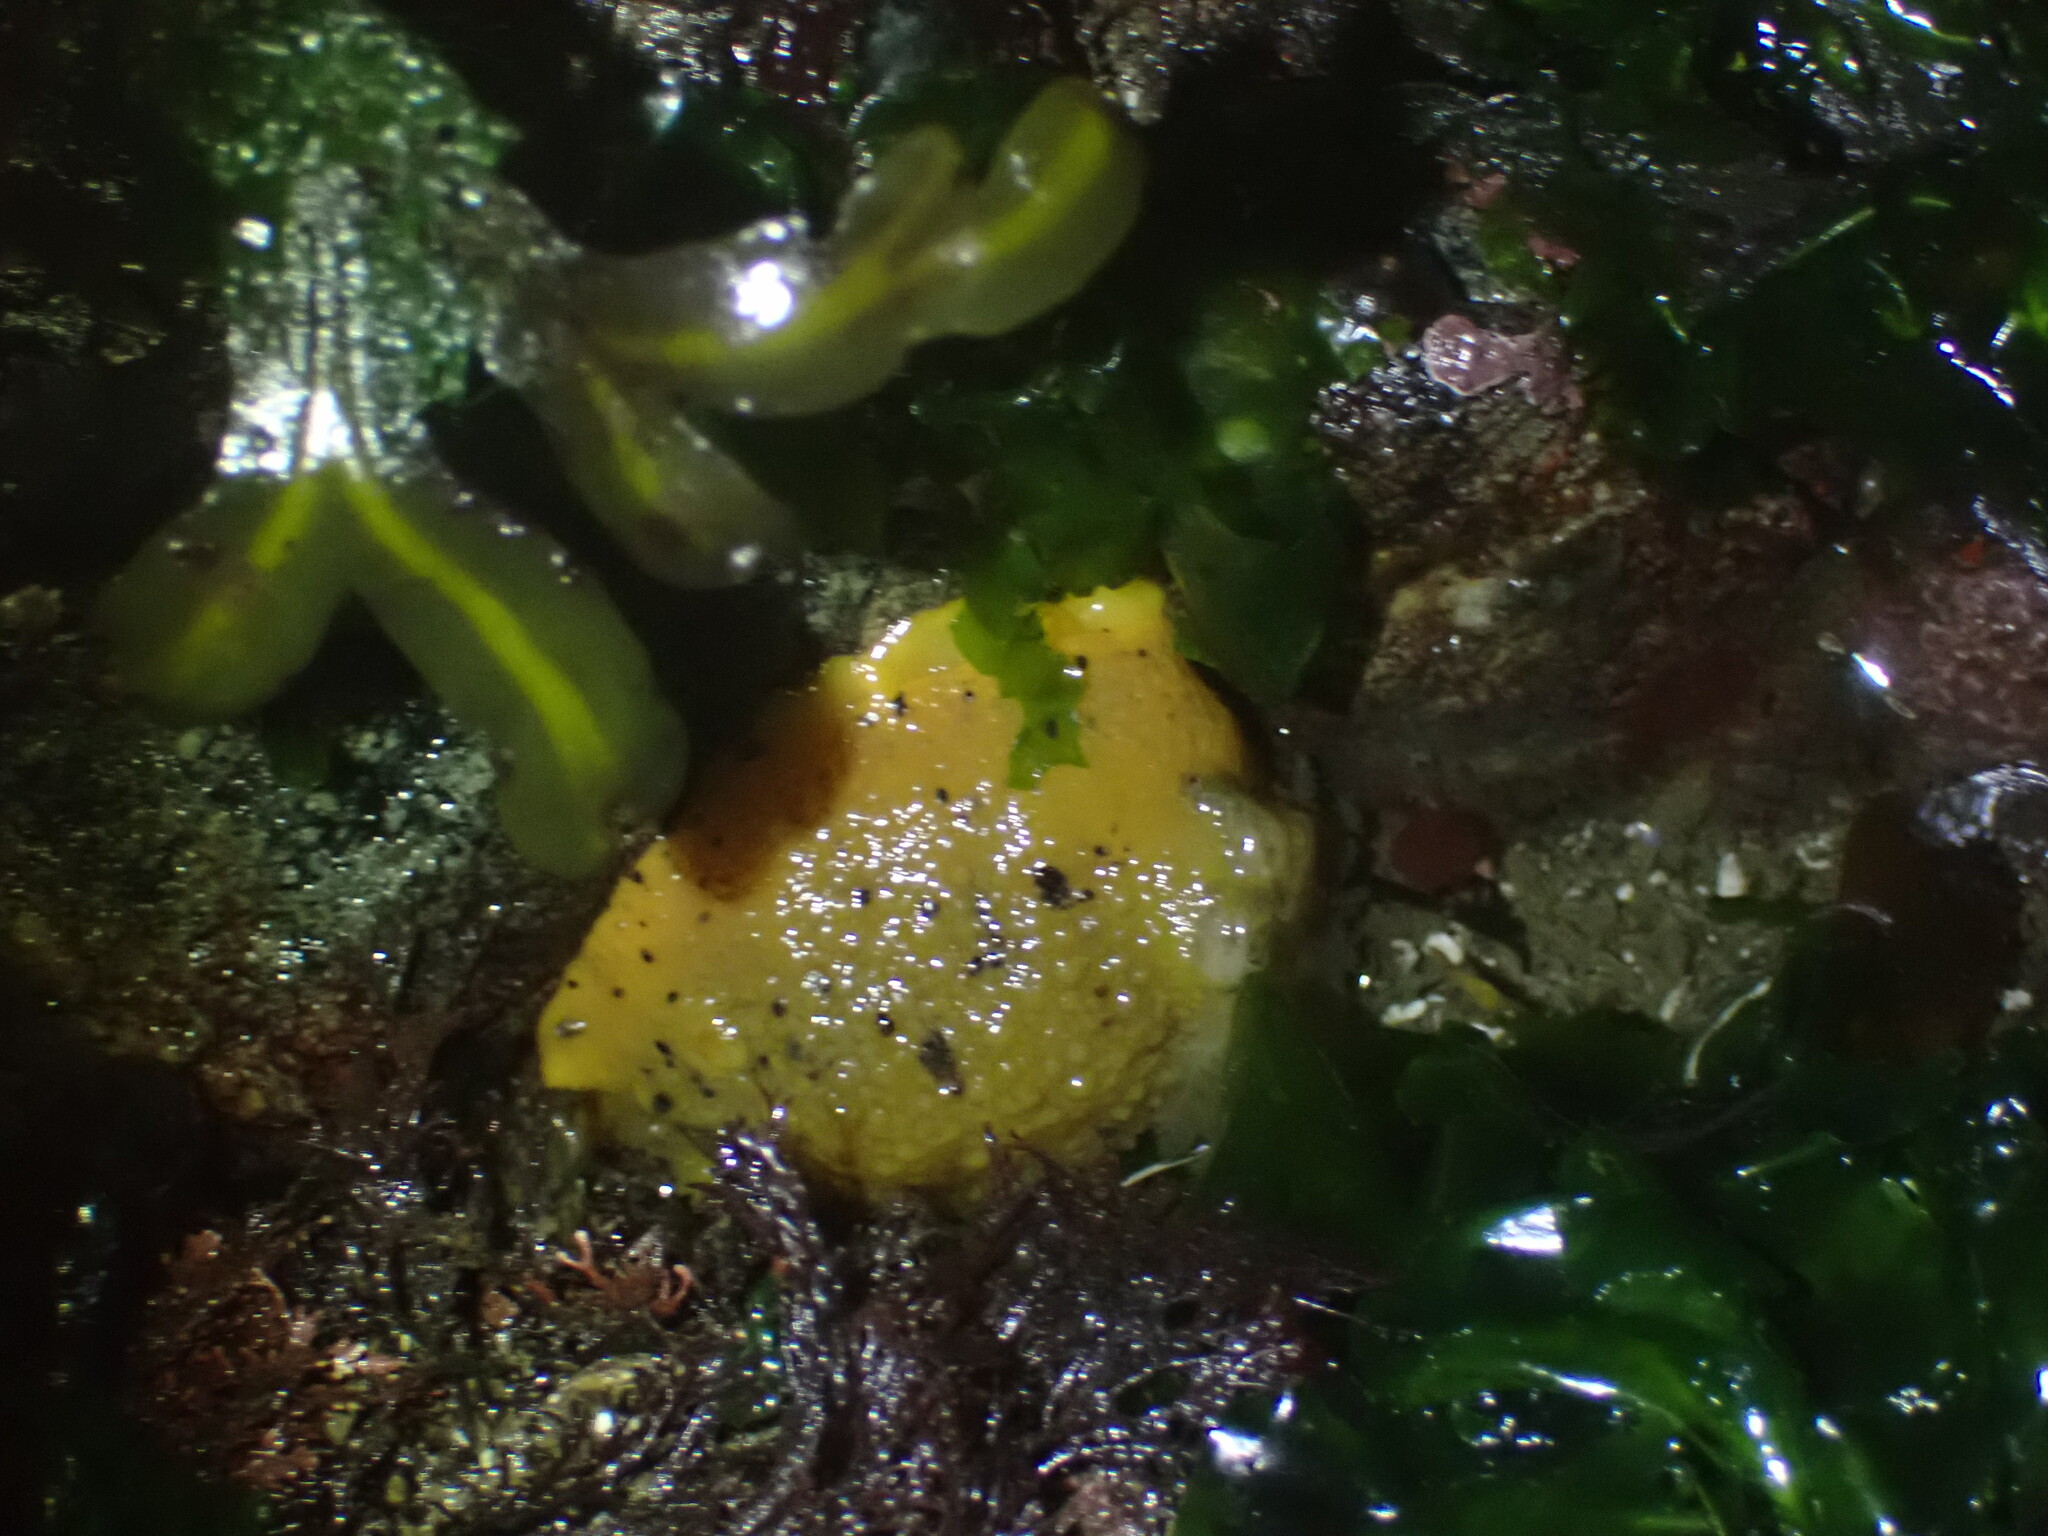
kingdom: Animalia
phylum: Mollusca
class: Gastropoda
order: Nudibranchia
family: Dorididae
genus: Doris
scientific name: Doris montereyensis
